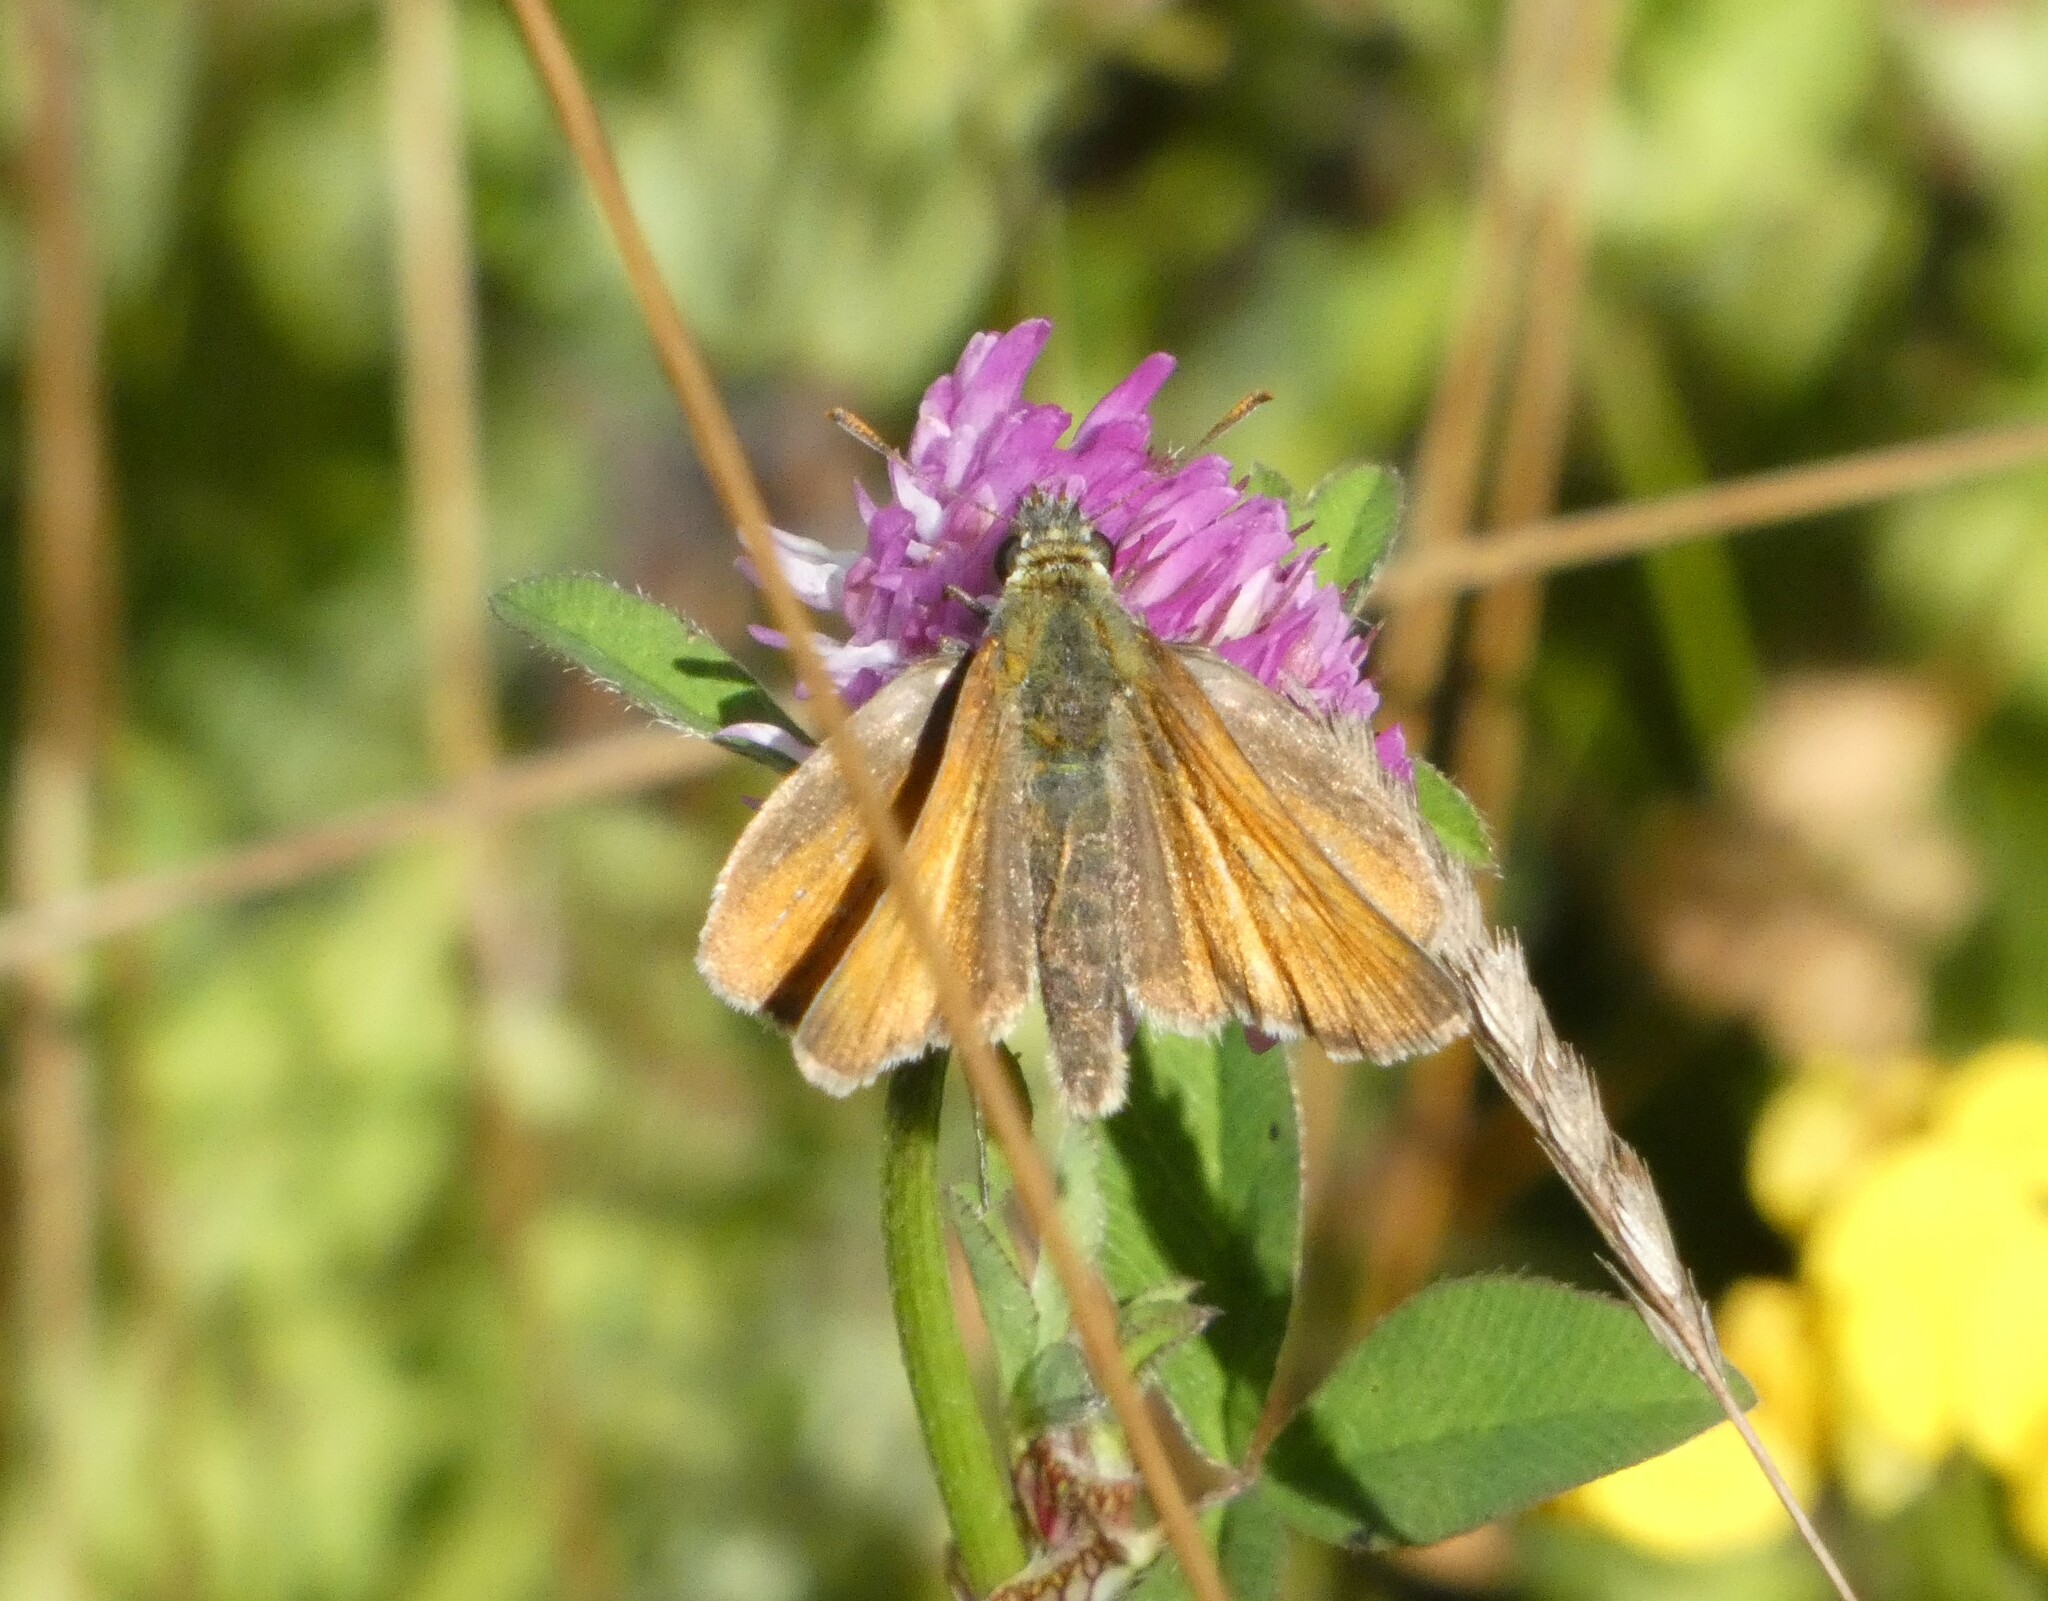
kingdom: Animalia
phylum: Arthropoda
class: Insecta
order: Lepidoptera
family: Hesperiidae
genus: Thymelicus
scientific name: Thymelicus sylvestris
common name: Small skipper
